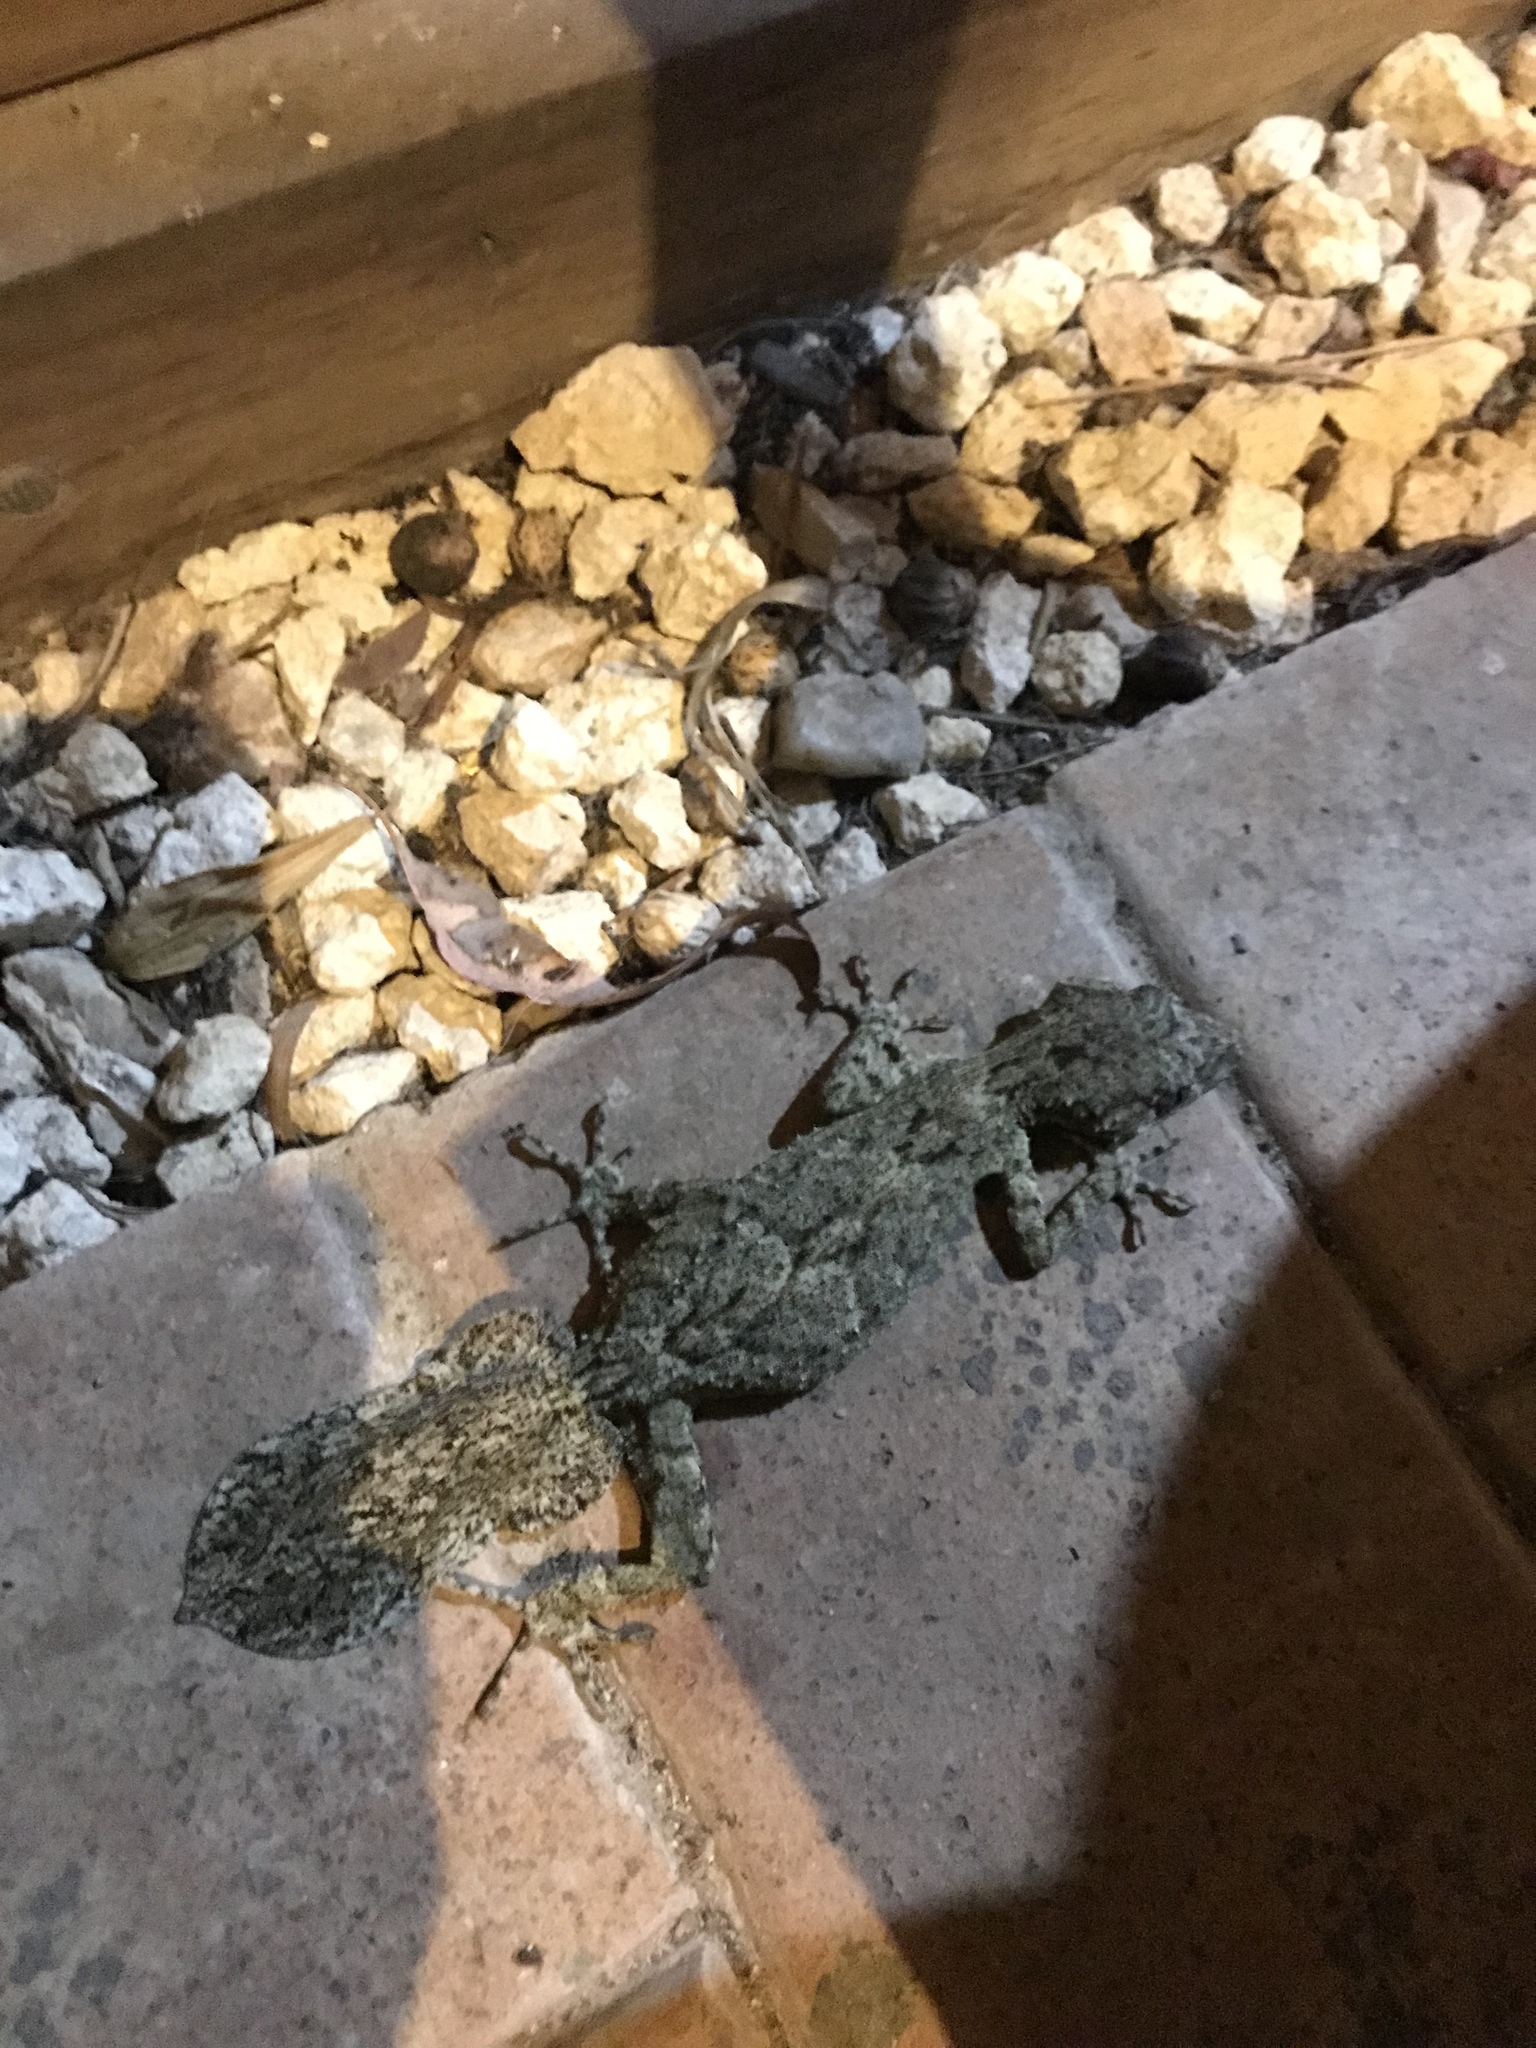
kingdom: Animalia
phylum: Chordata
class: Squamata
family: Carphodactylidae
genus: Saltuarius
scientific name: Saltuarius moritzi
